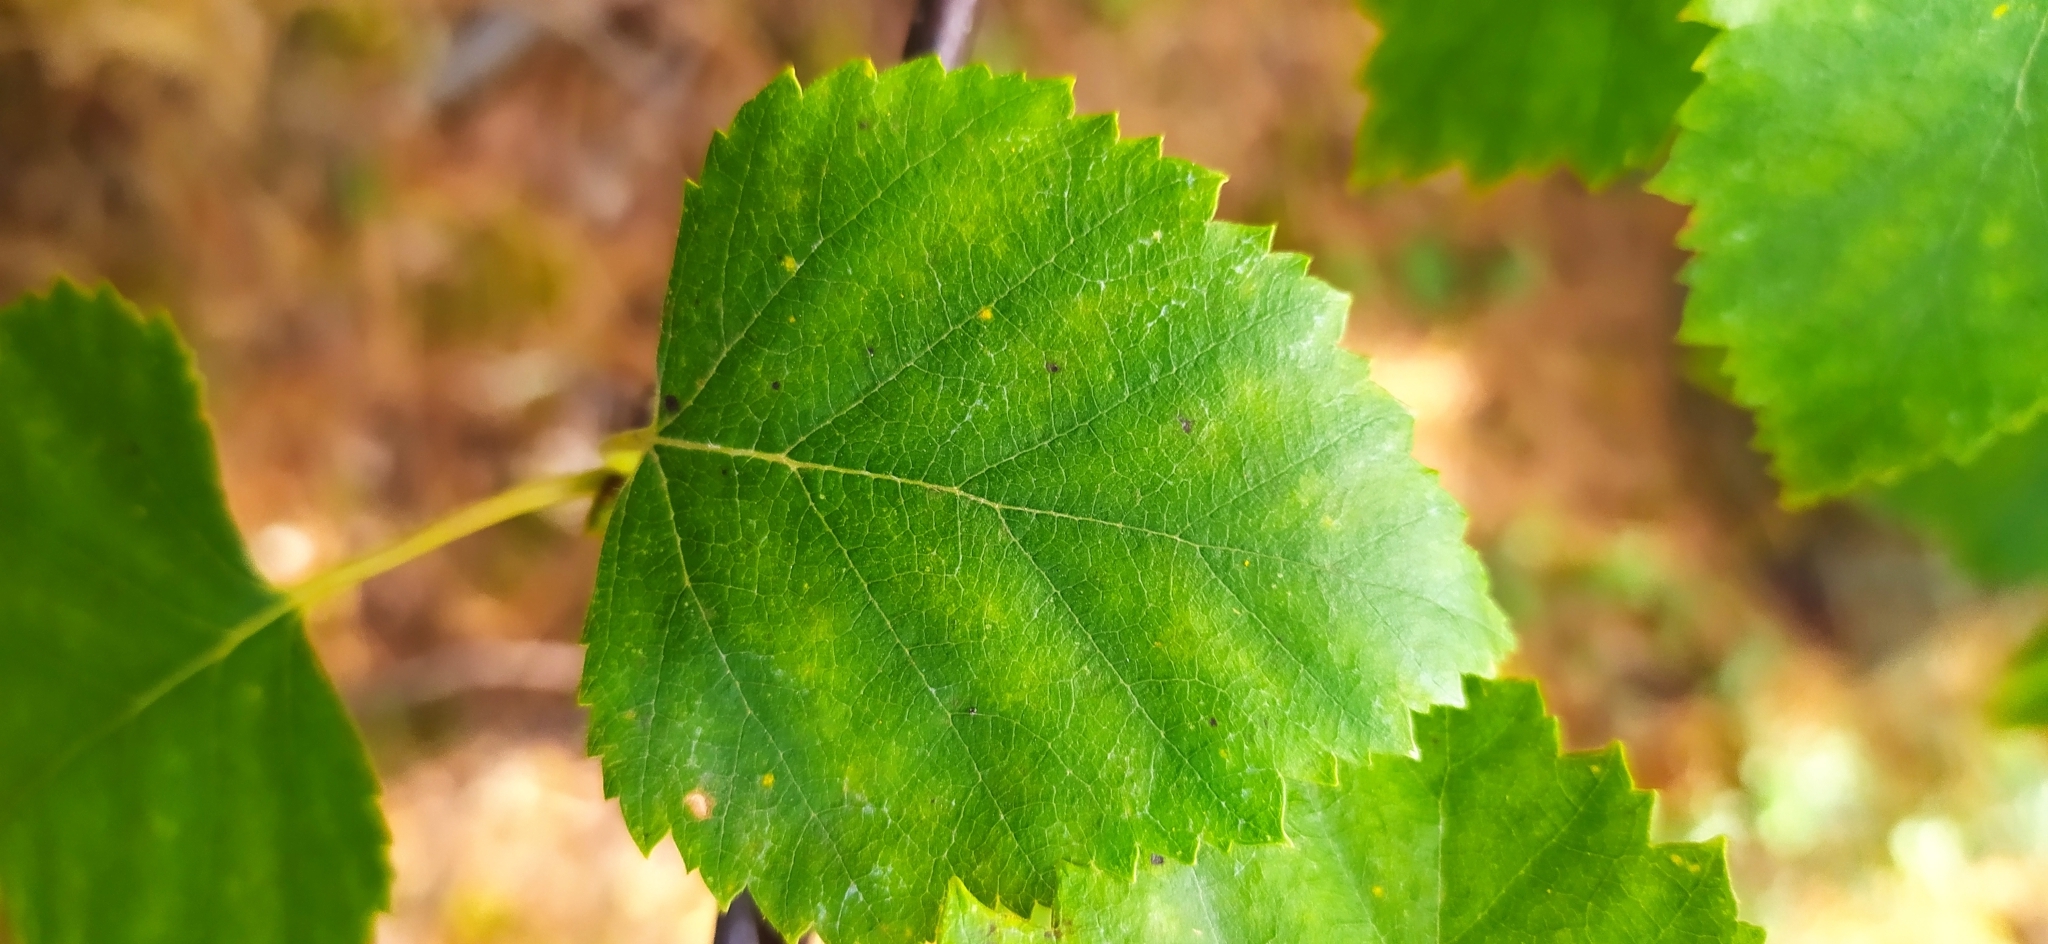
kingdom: Plantae
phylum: Tracheophyta
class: Magnoliopsida
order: Fagales
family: Betulaceae
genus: Betula
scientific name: Betula pubescens
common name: Downy birch
